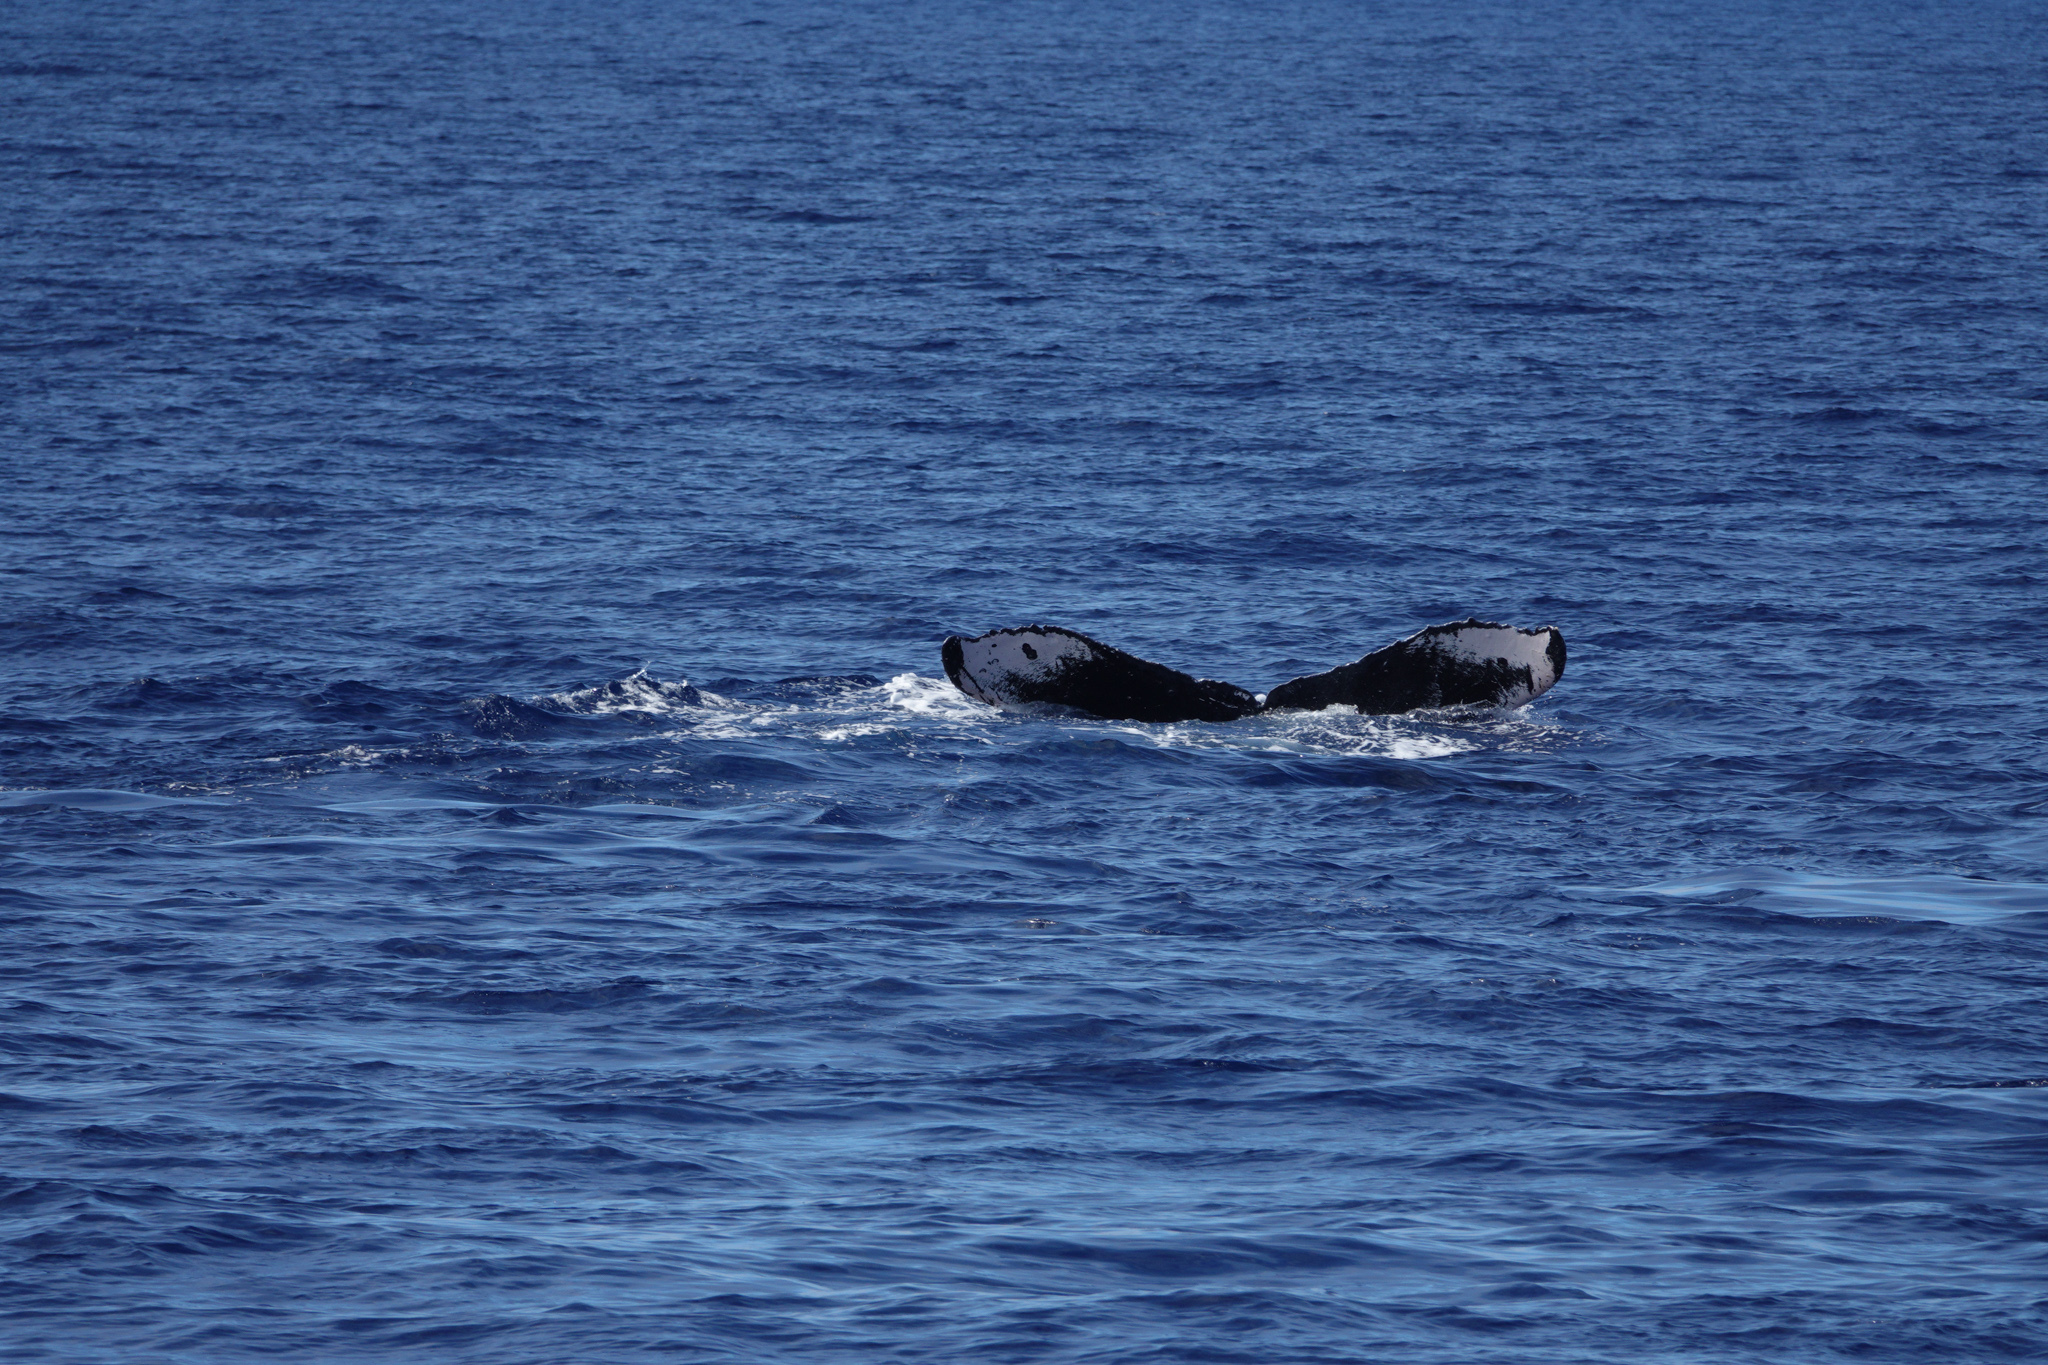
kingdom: Animalia
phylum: Chordata
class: Mammalia
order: Cetacea
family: Balaenopteridae
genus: Megaptera
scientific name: Megaptera novaeangliae
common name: Humpback whale
